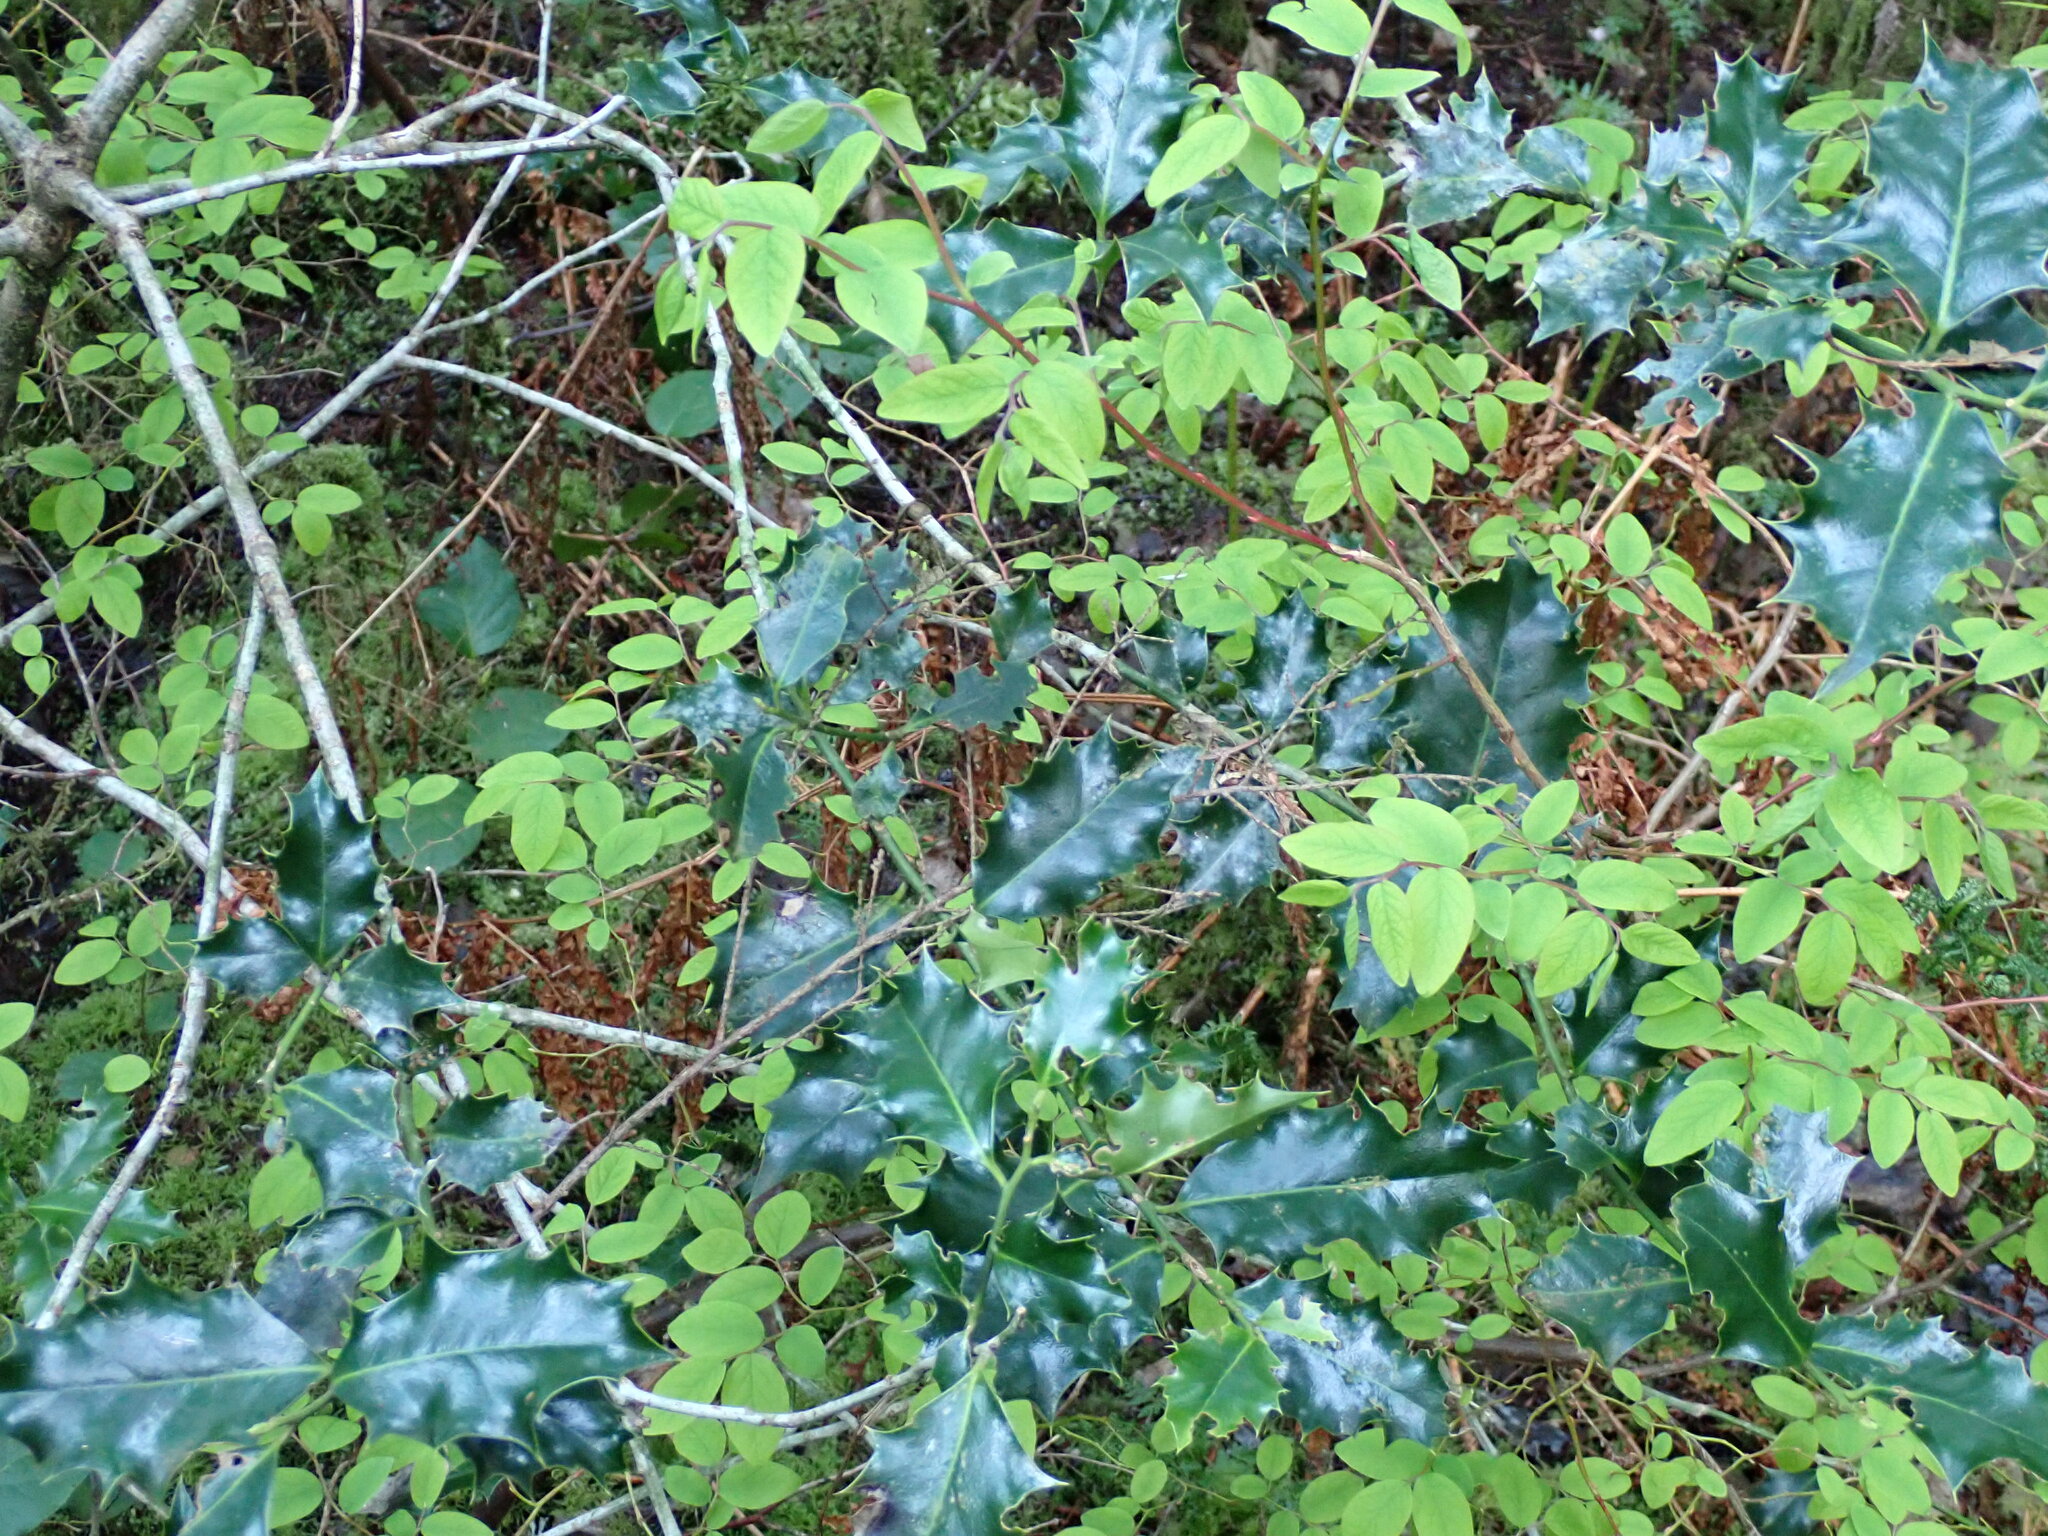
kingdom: Plantae
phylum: Tracheophyta
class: Magnoliopsida
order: Aquifoliales
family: Aquifoliaceae
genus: Ilex
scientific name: Ilex aquifolium
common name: English holly
